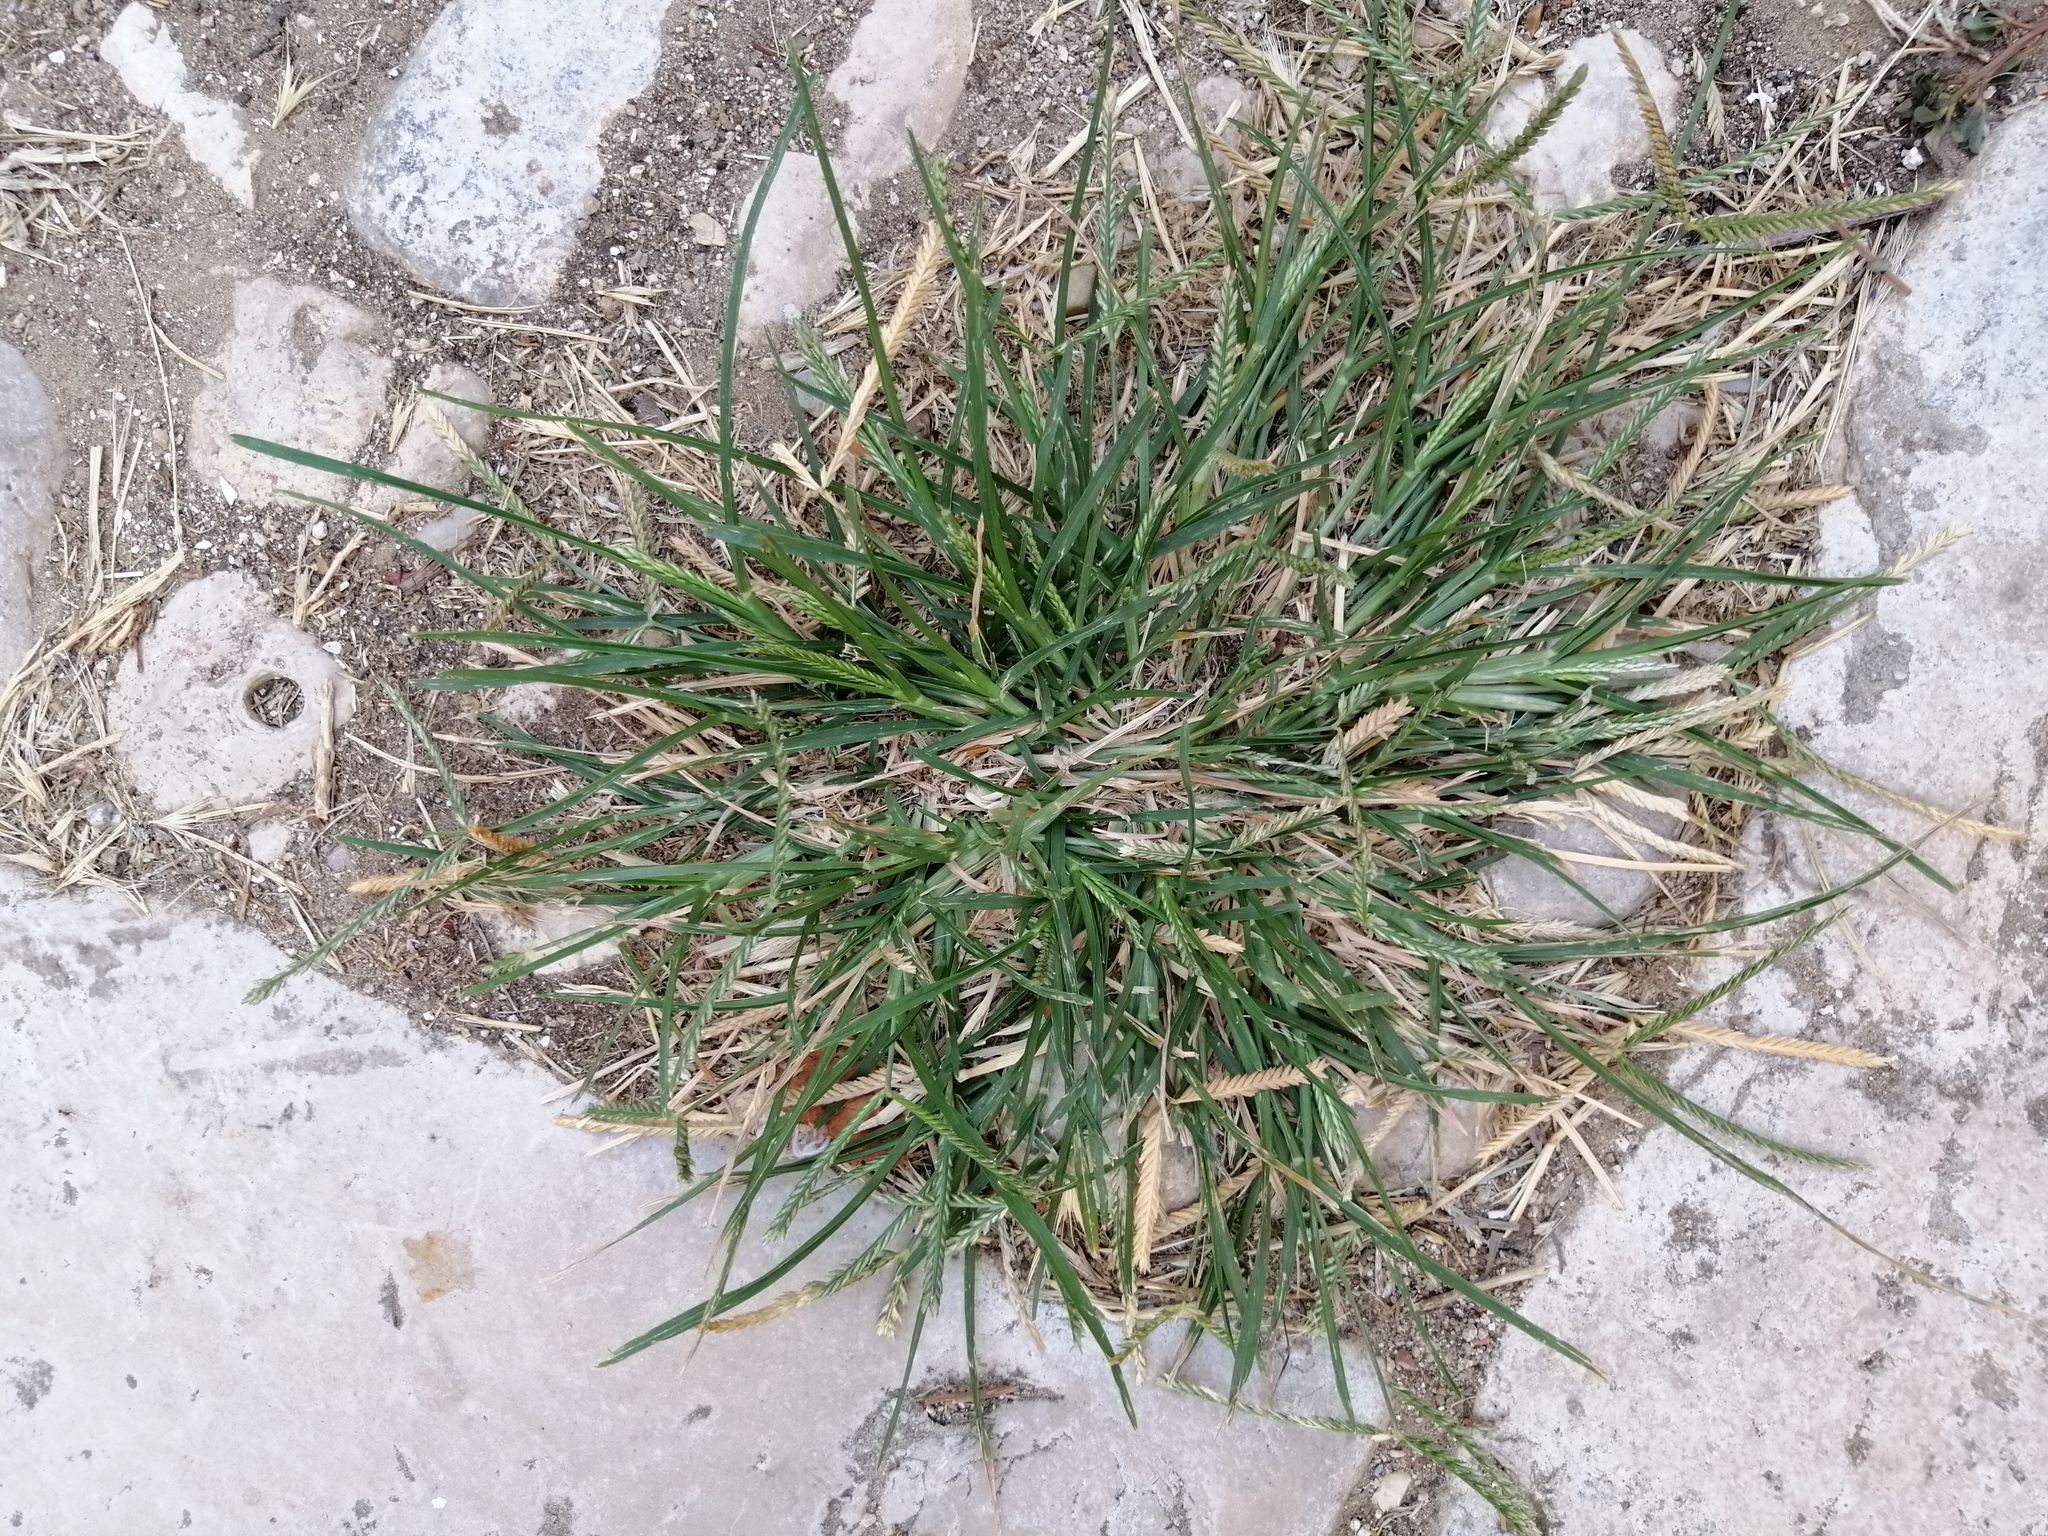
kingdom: Plantae
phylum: Tracheophyta
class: Liliopsida
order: Poales
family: Poaceae
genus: Eleusine
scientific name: Eleusine indica
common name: Yard-grass
